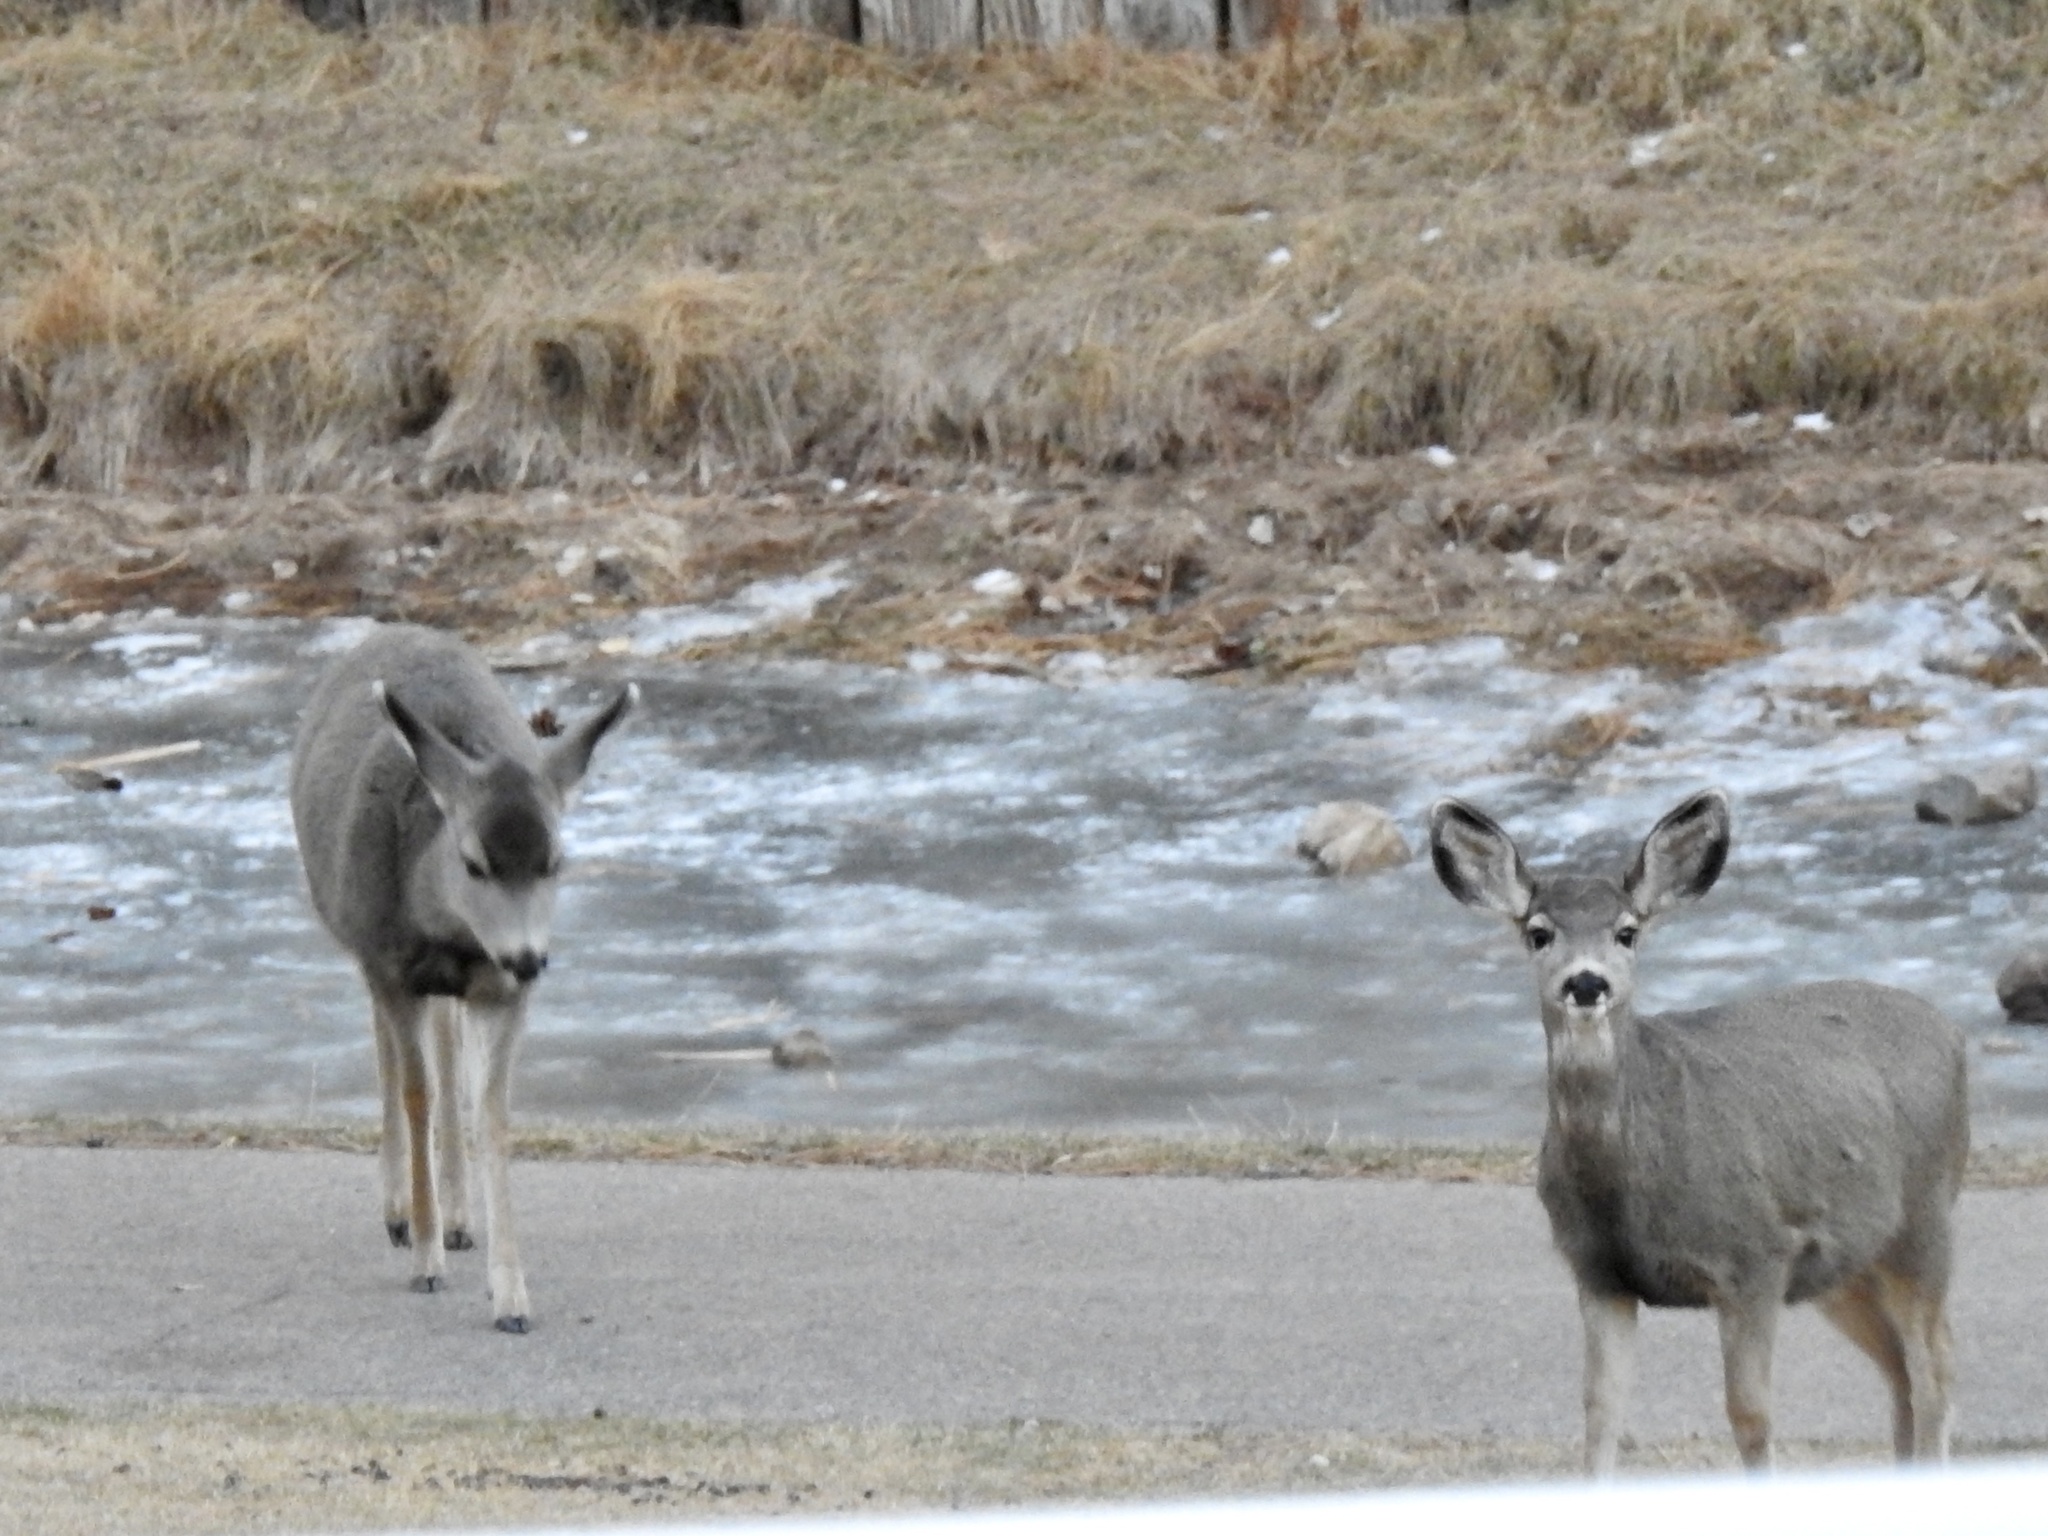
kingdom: Animalia
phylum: Chordata
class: Mammalia
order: Artiodactyla
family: Cervidae
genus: Odocoileus
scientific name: Odocoileus hemionus
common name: Mule deer
